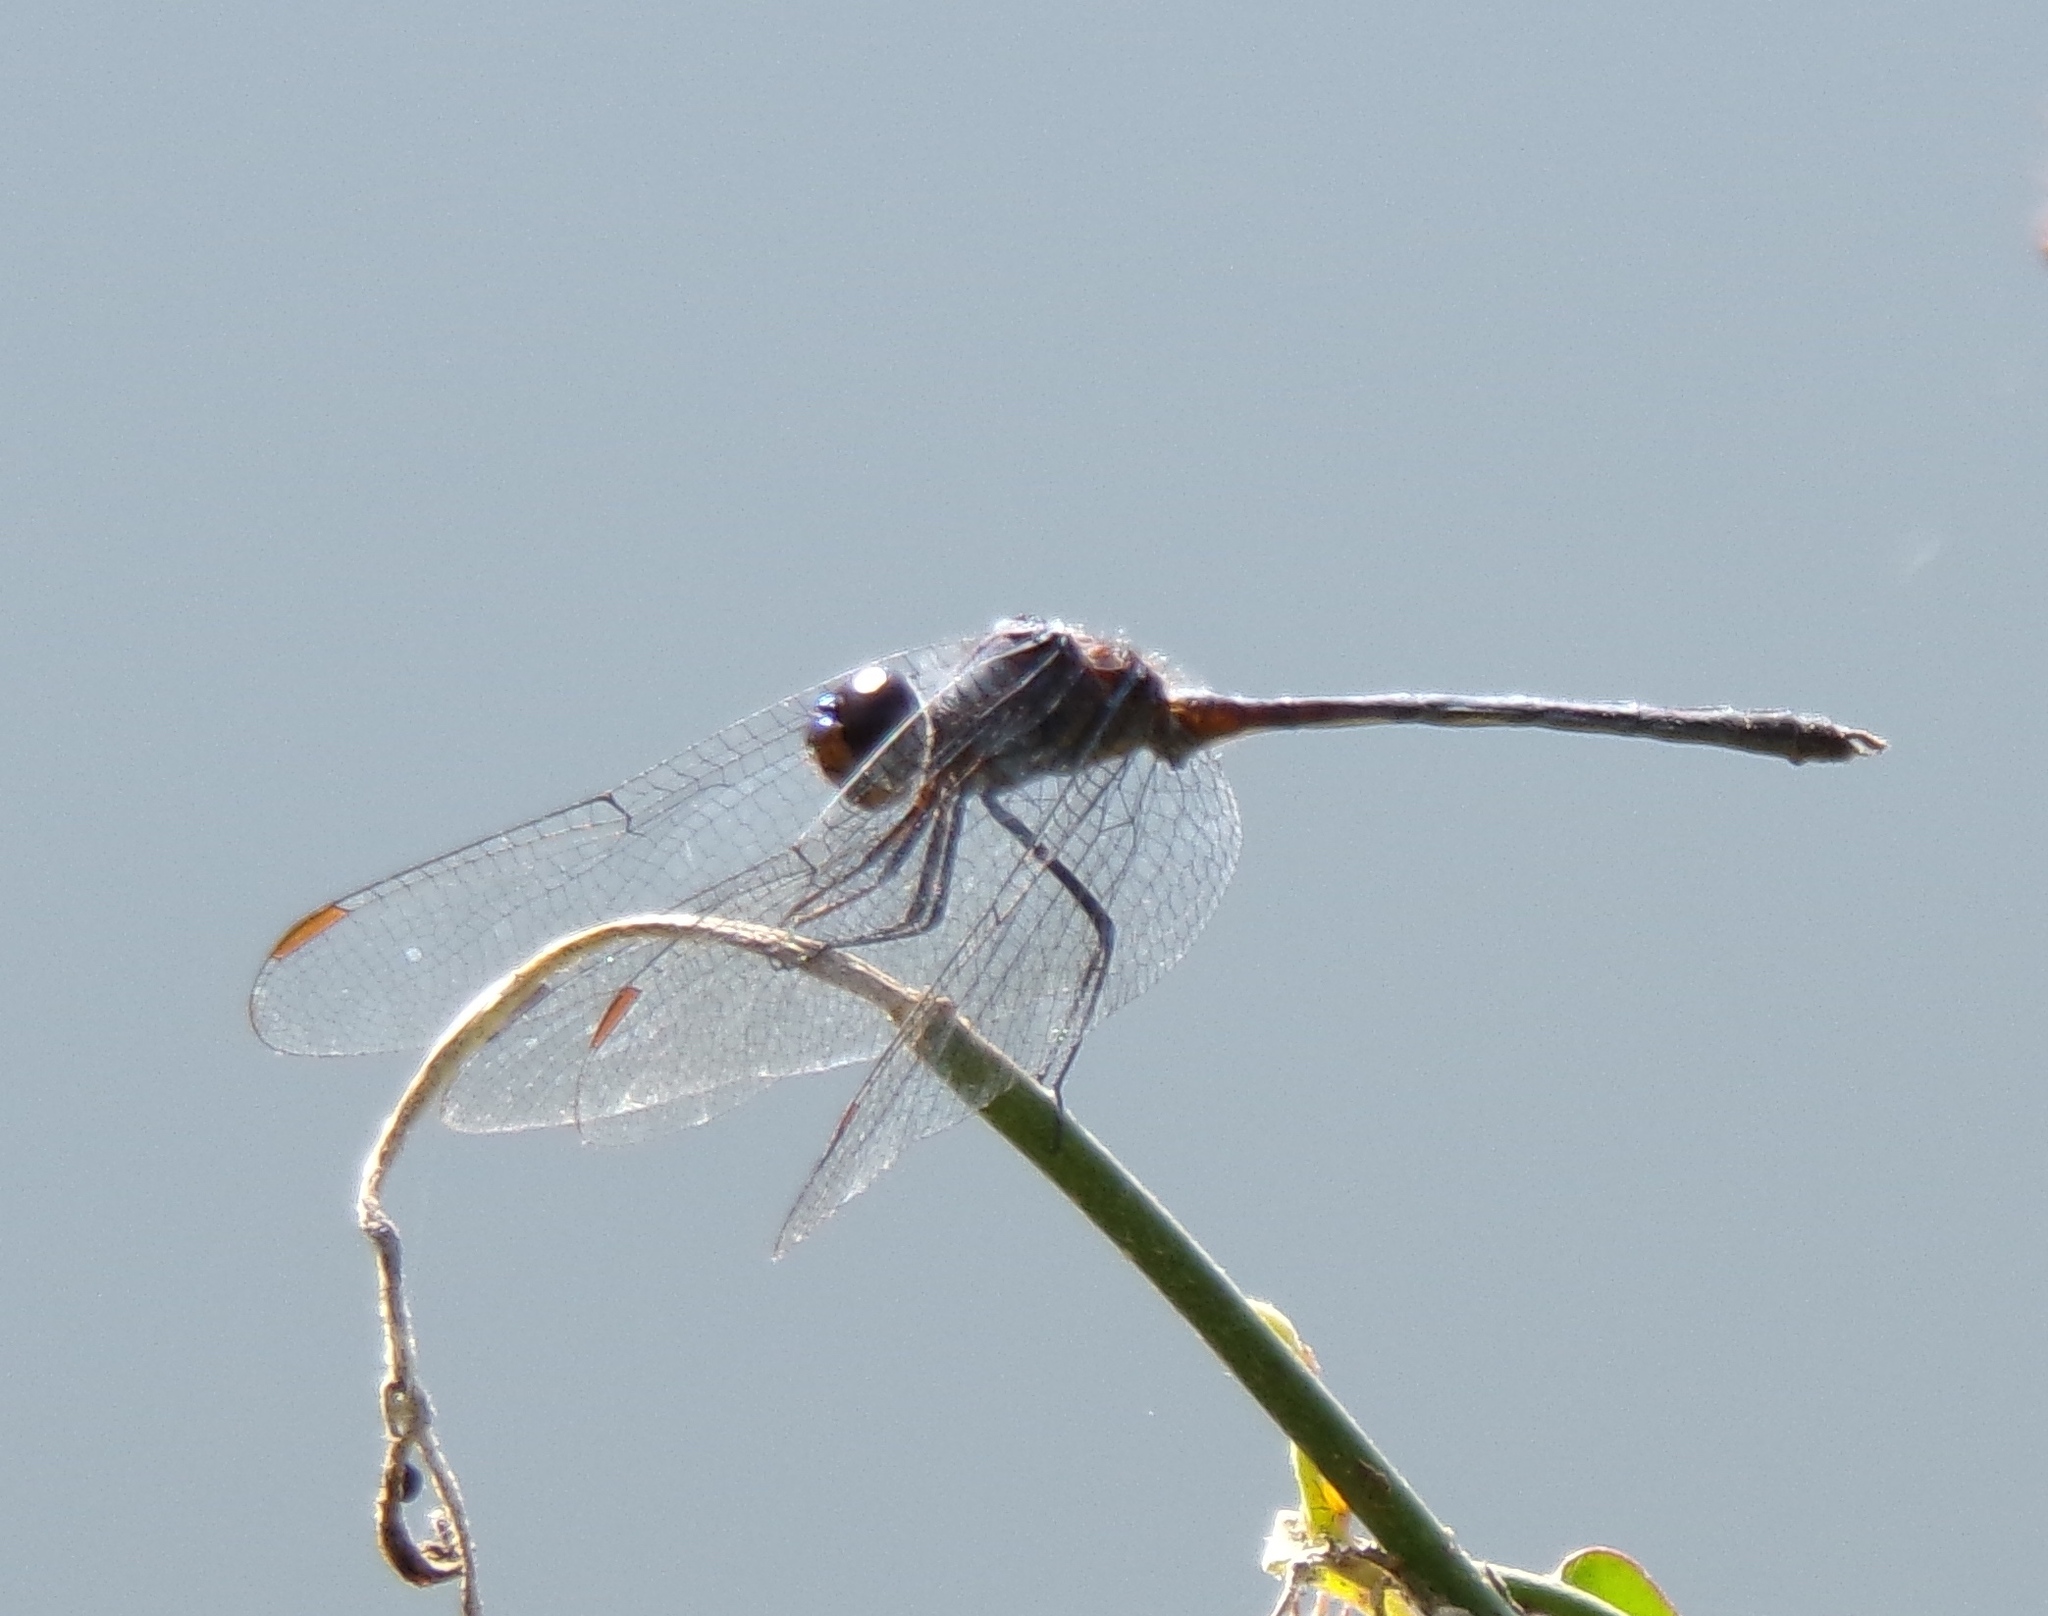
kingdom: Animalia
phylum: Arthropoda
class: Insecta
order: Odonata
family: Libellulidae
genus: Dythemis
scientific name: Dythemis nigrescens
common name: Black setwing
